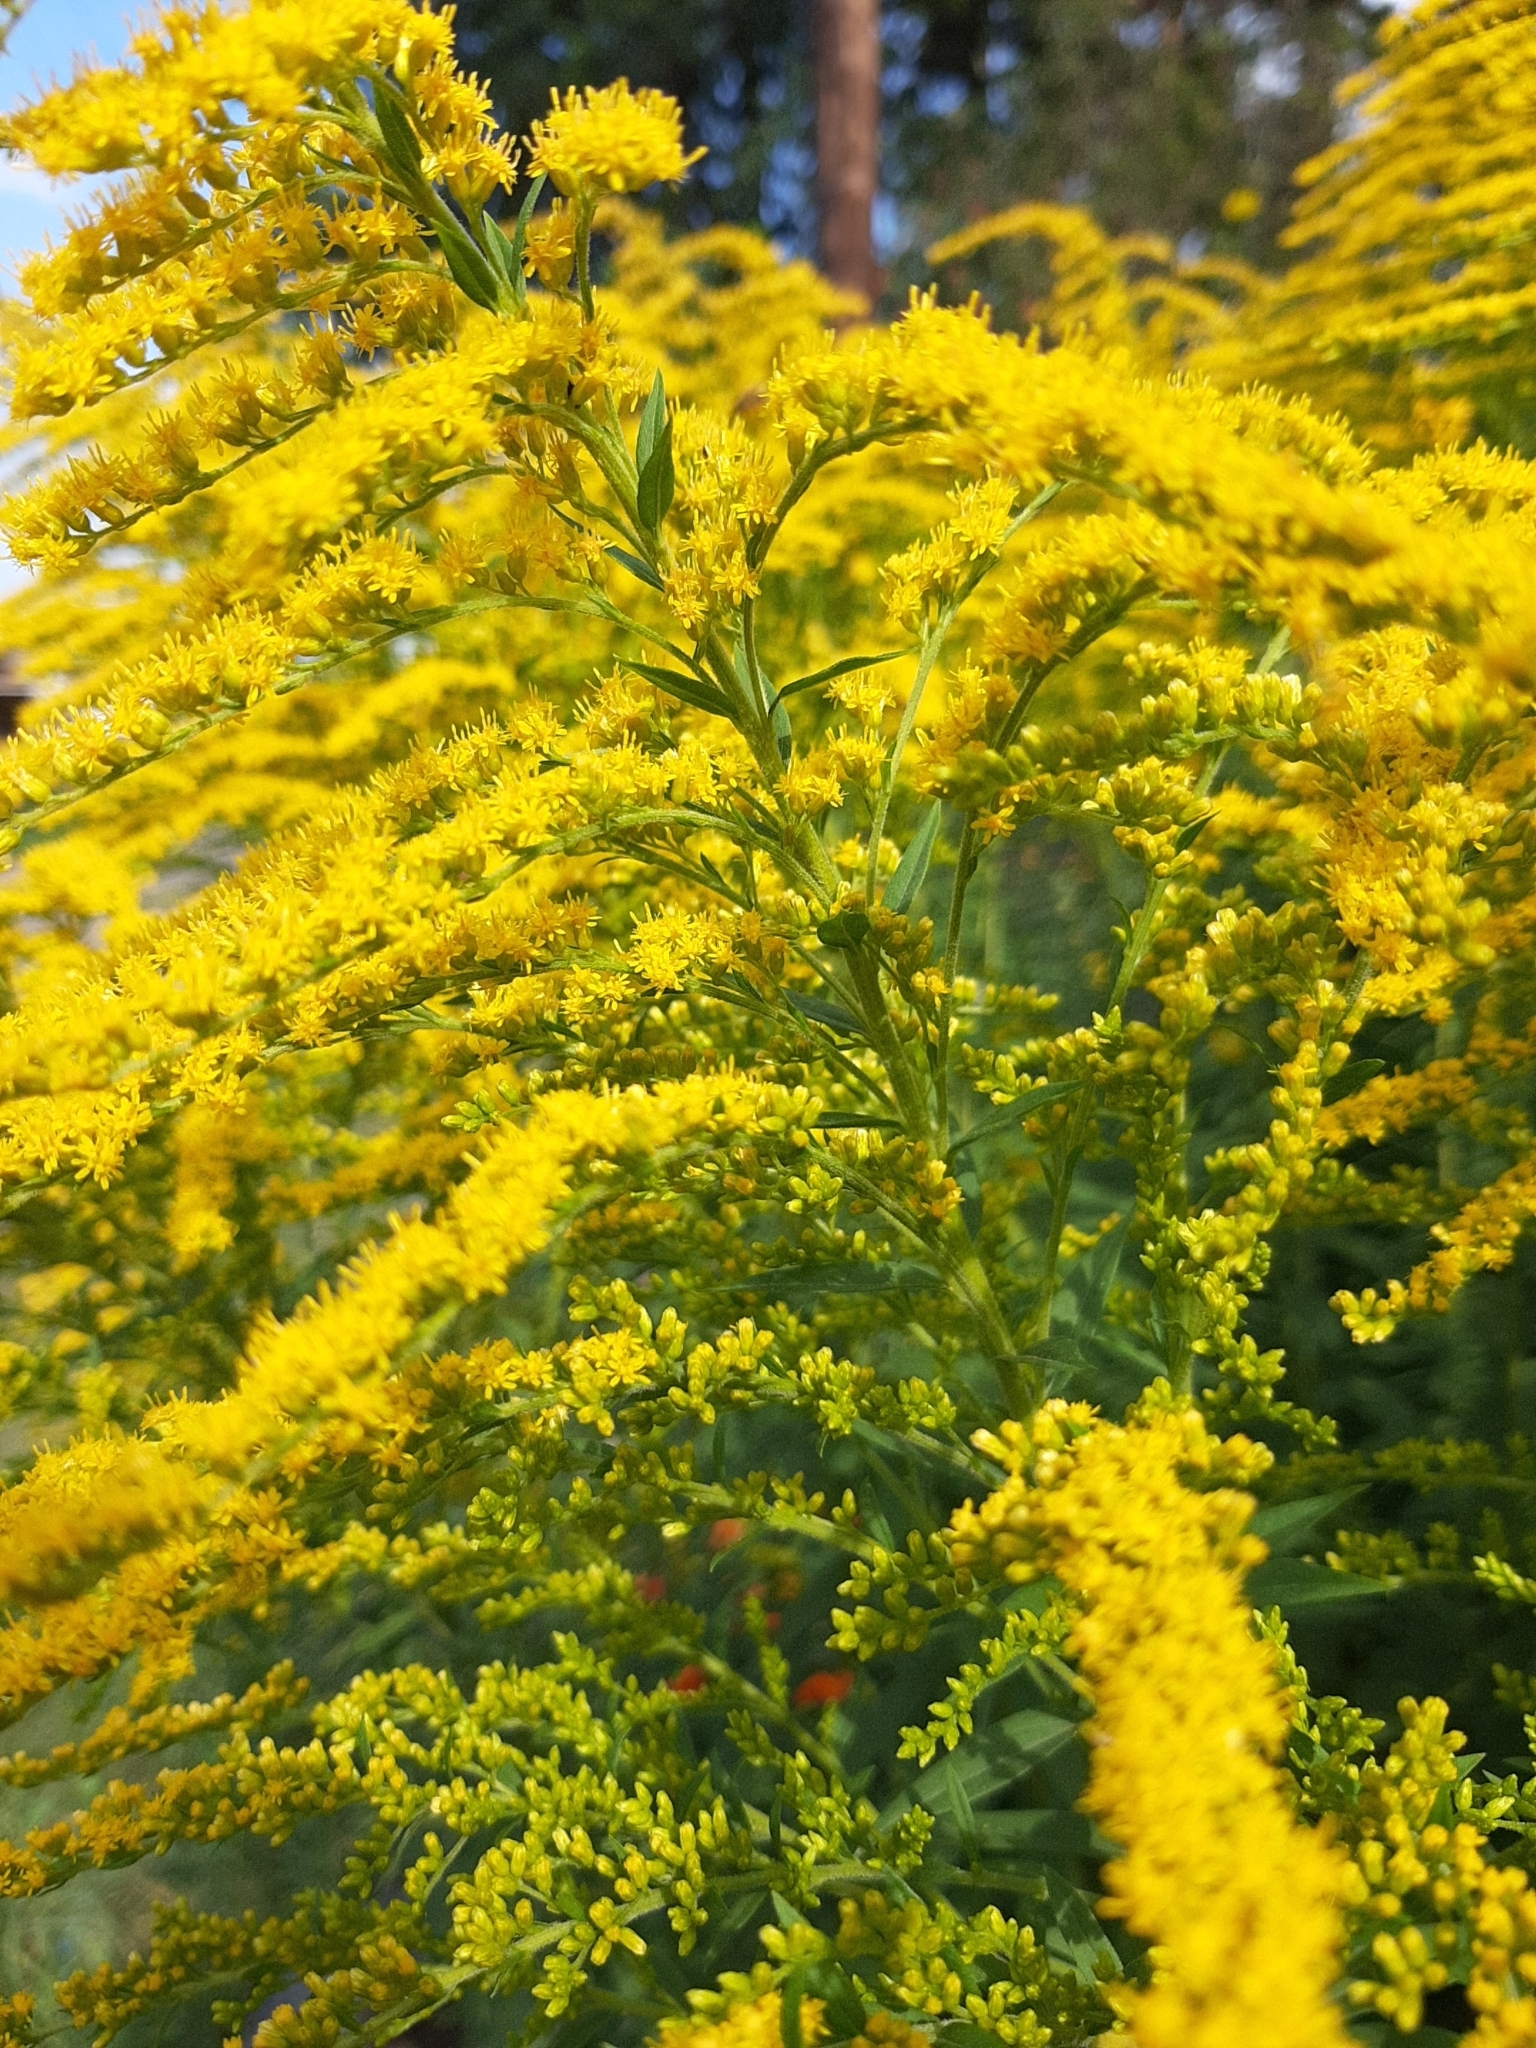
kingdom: Plantae
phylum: Tracheophyta
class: Magnoliopsida
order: Asterales
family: Asteraceae
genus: Solidago
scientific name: Solidago canadensis
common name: Canada goldenrod
